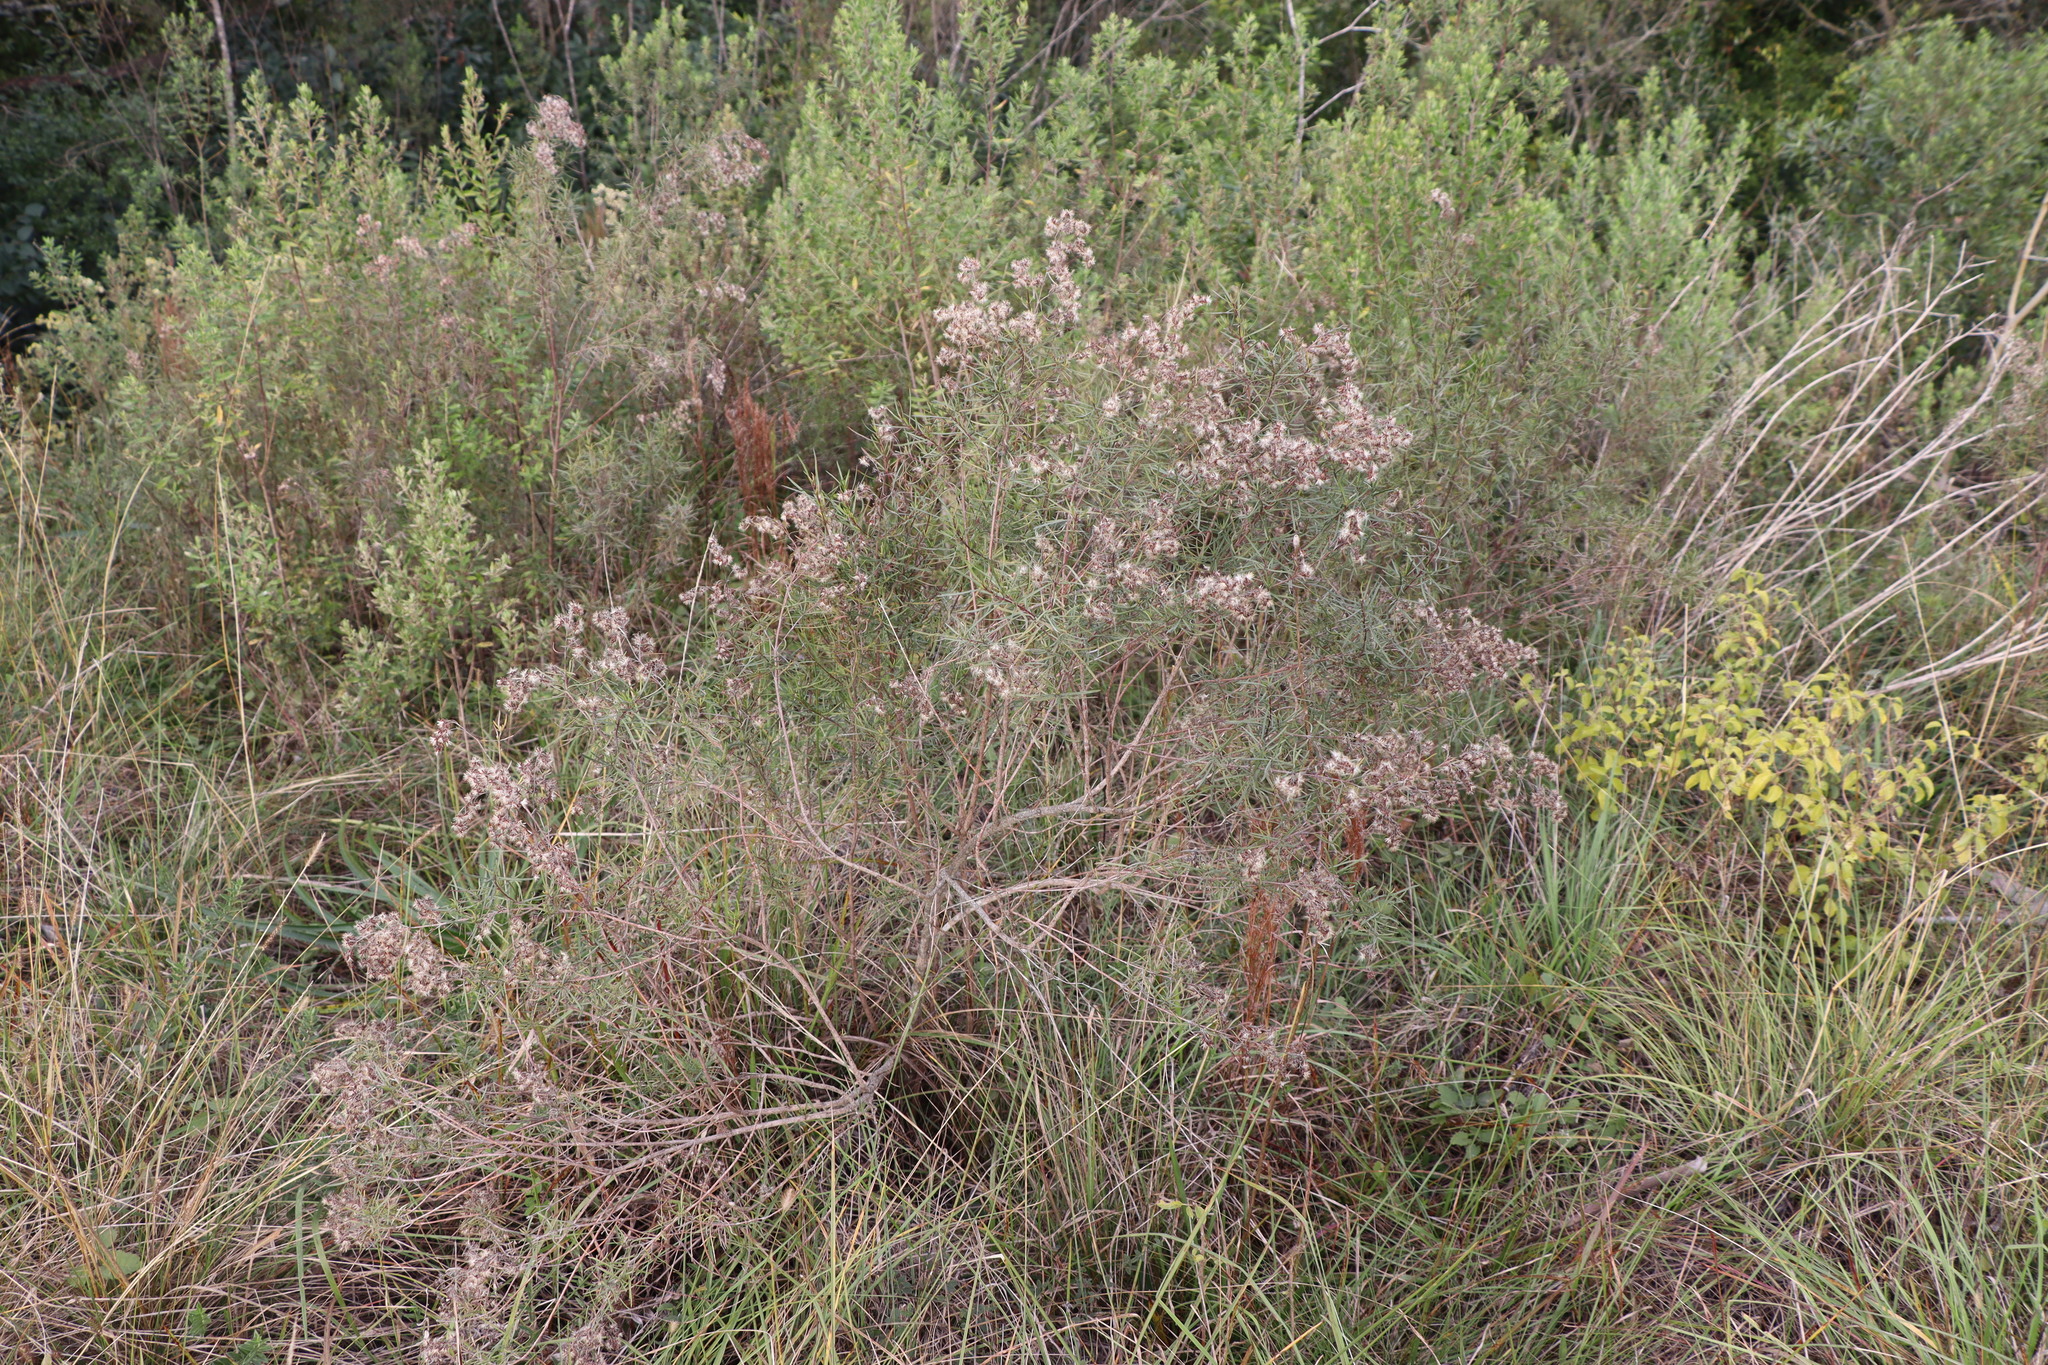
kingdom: Plantae
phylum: Tracheophyta
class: Magnoliopsida
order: Asterales
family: Asteraceae
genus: Acanthostyles
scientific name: Acanthostyles buniifolius
